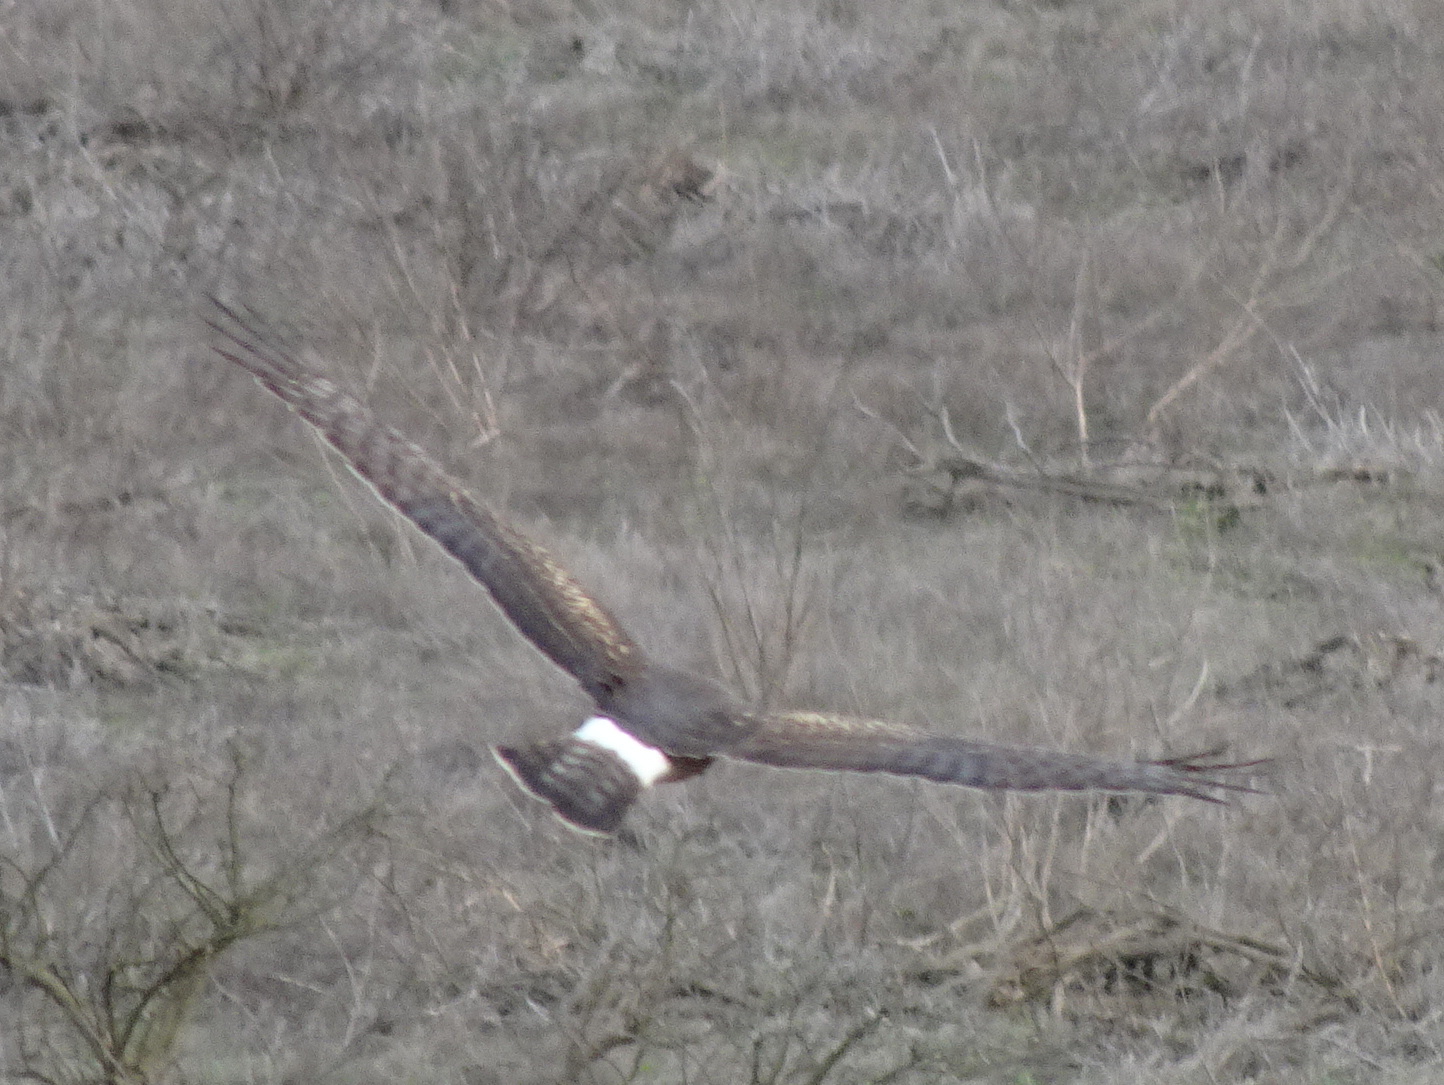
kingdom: Animalia
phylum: Chordata
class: Aves
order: Accipitriformes
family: Accipitridae
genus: Circus
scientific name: Circus cyaneus
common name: Hen harrier
